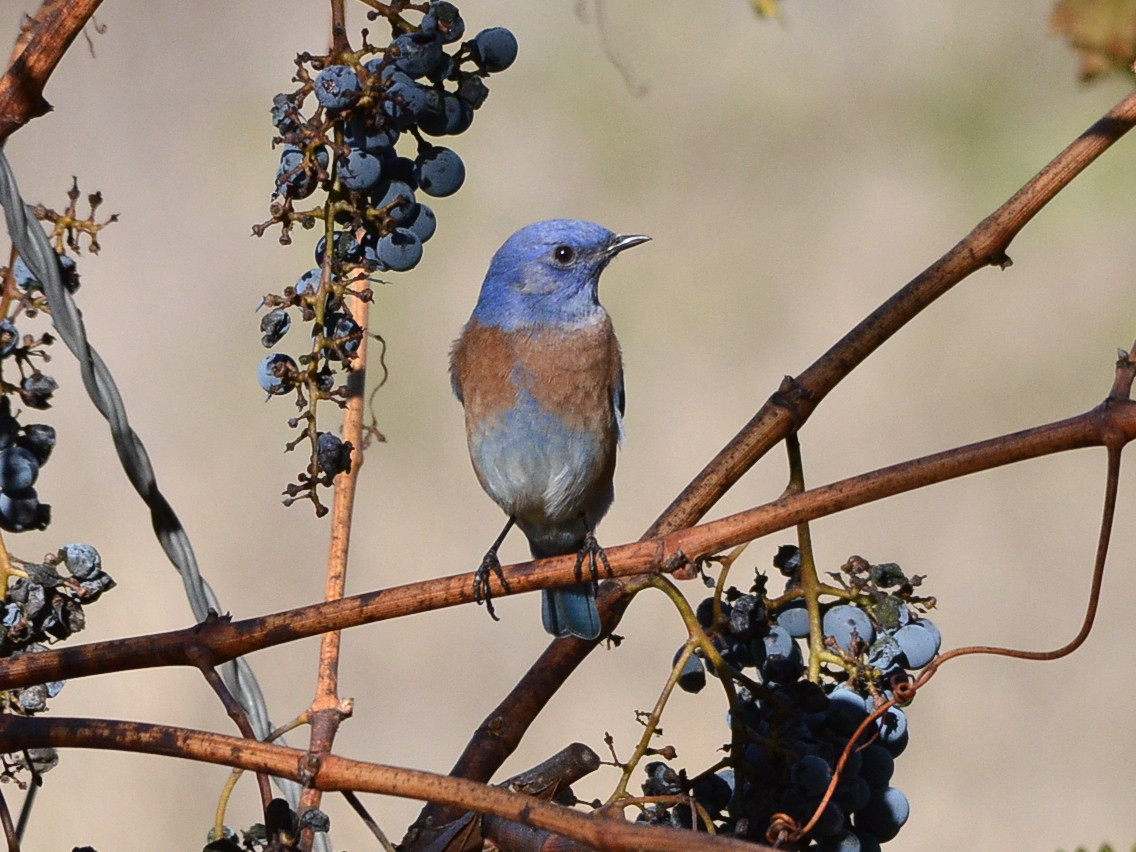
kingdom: Animalia
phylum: Chordata
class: Aves
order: Passeriformes
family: Turdidae
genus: Sialia
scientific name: Sialia mexicana
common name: Western bluebird
